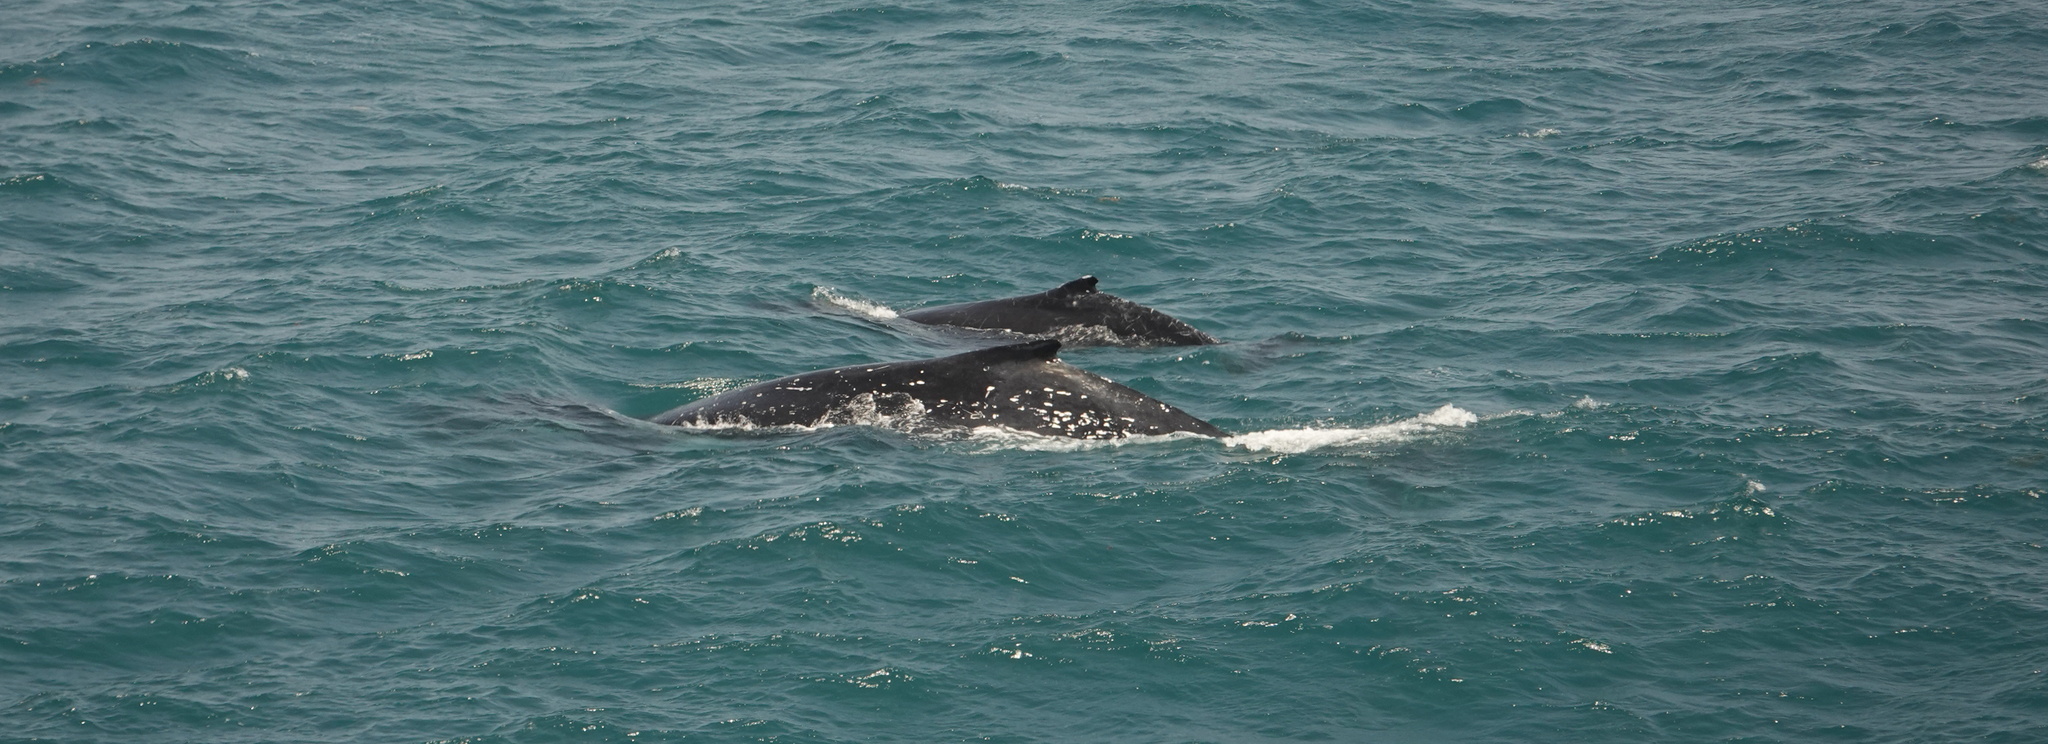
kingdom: Animalia
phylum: Chordata
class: Mammalia
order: Cetacea
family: Balaenopteridae
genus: Megaptera
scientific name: Megaptera novaeangliae
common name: Humpback whale
